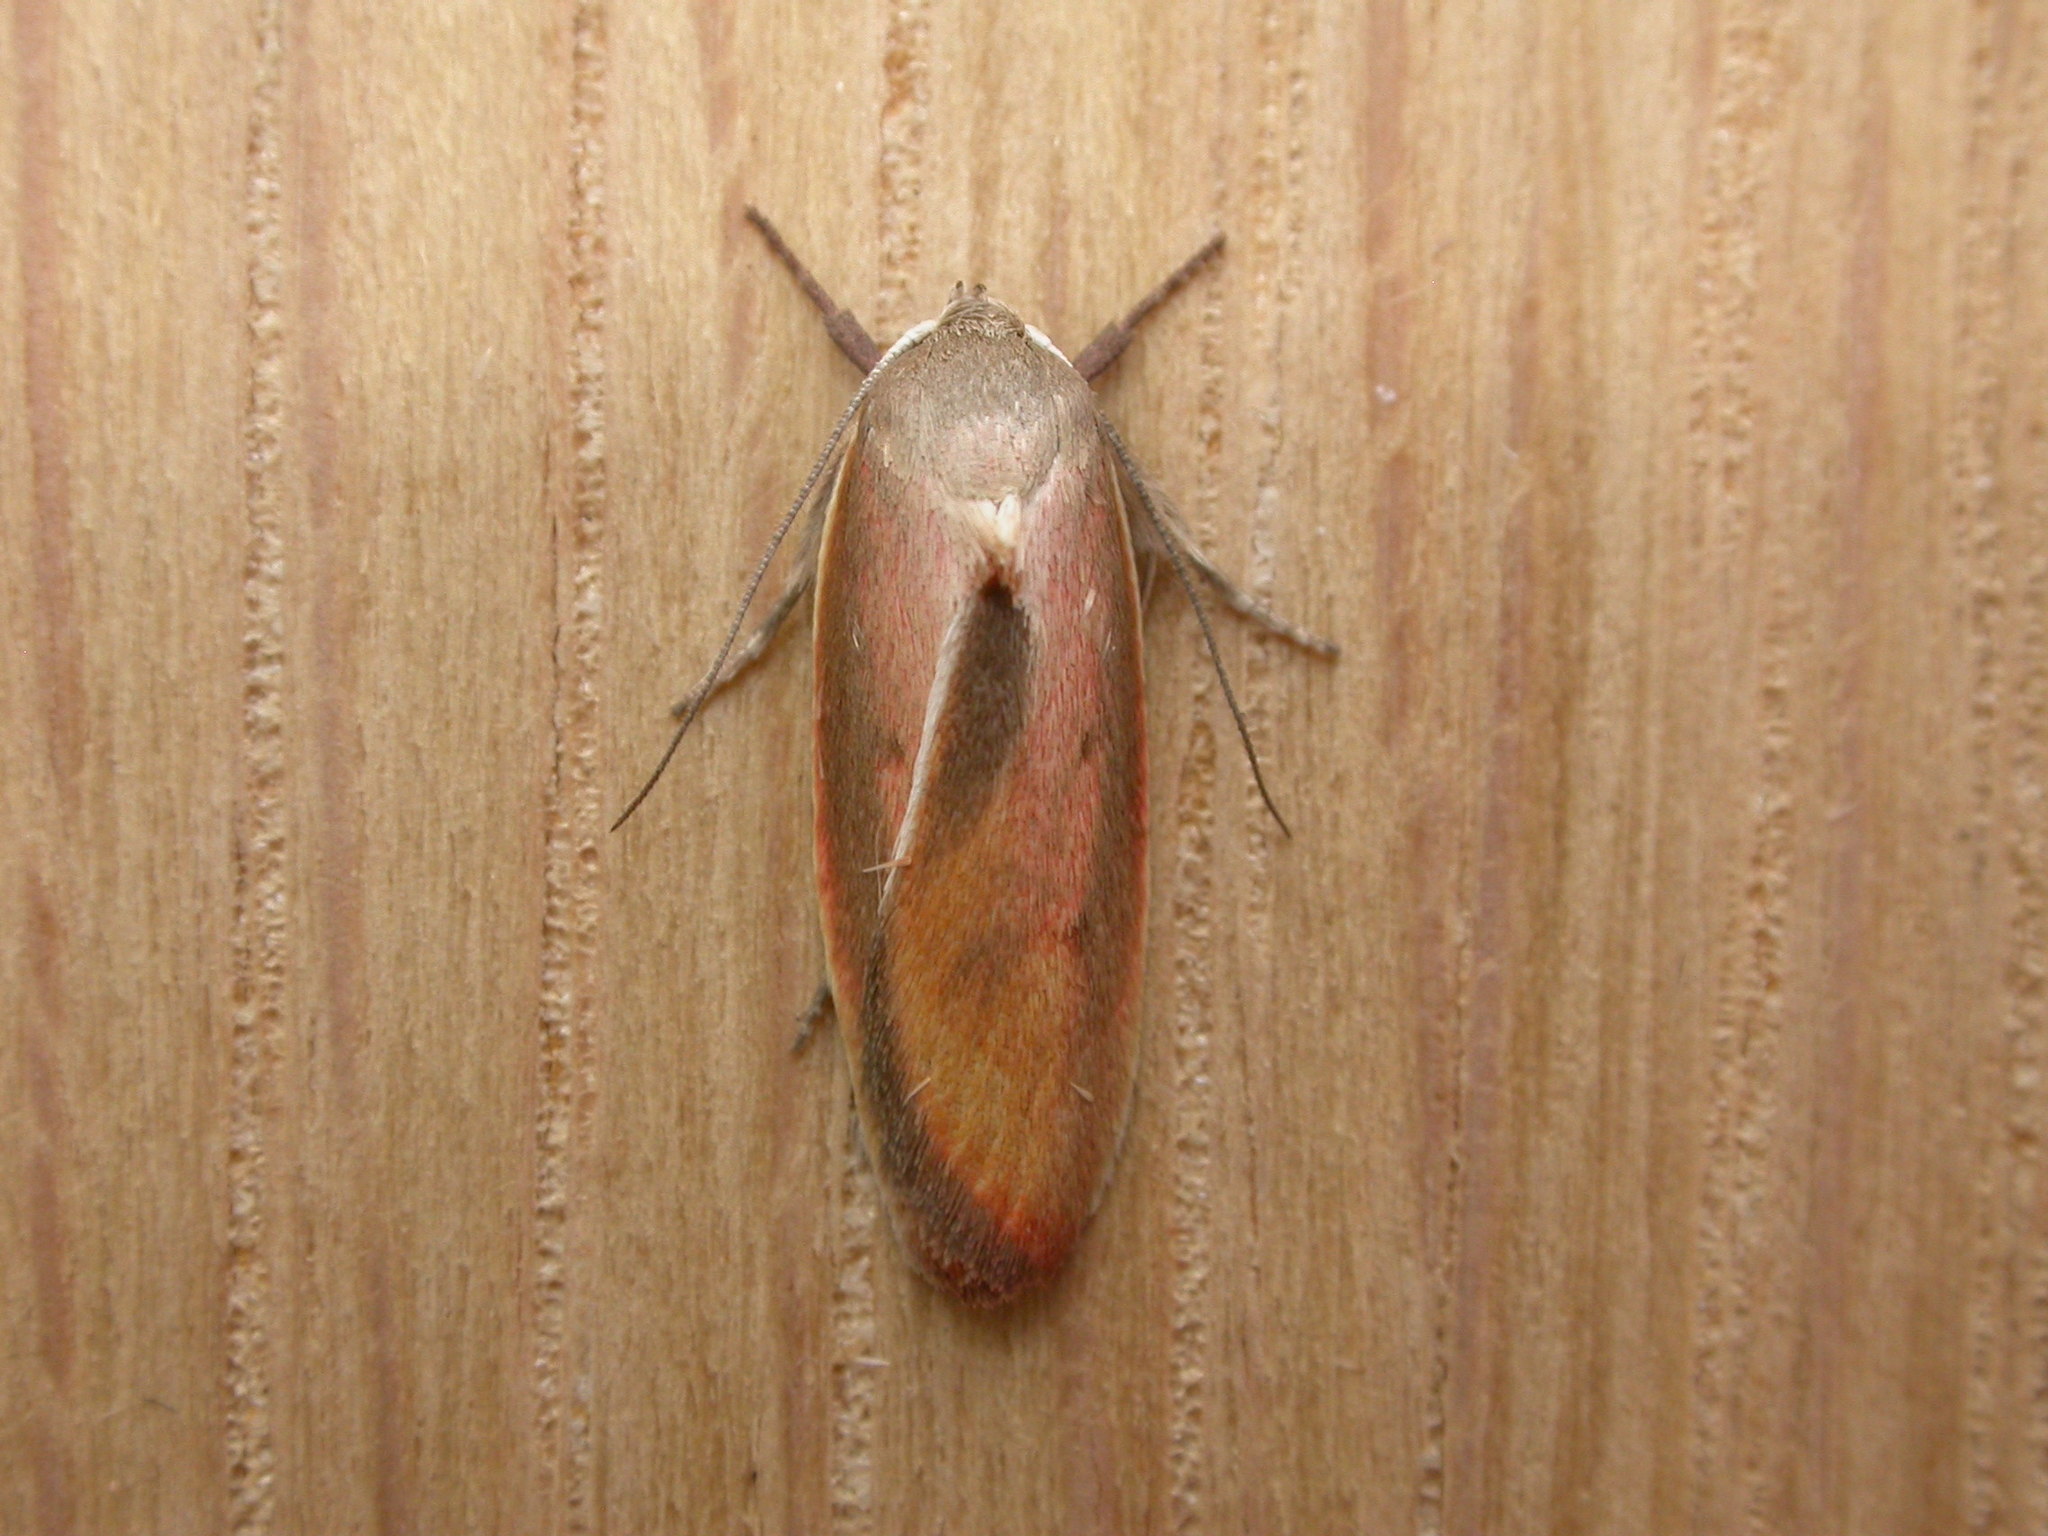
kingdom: Animalia
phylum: Arthropoda
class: Insecta
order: Lepidoptera
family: Oecophoridae
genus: Ptyoptila
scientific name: Ptyoptila matutinella
